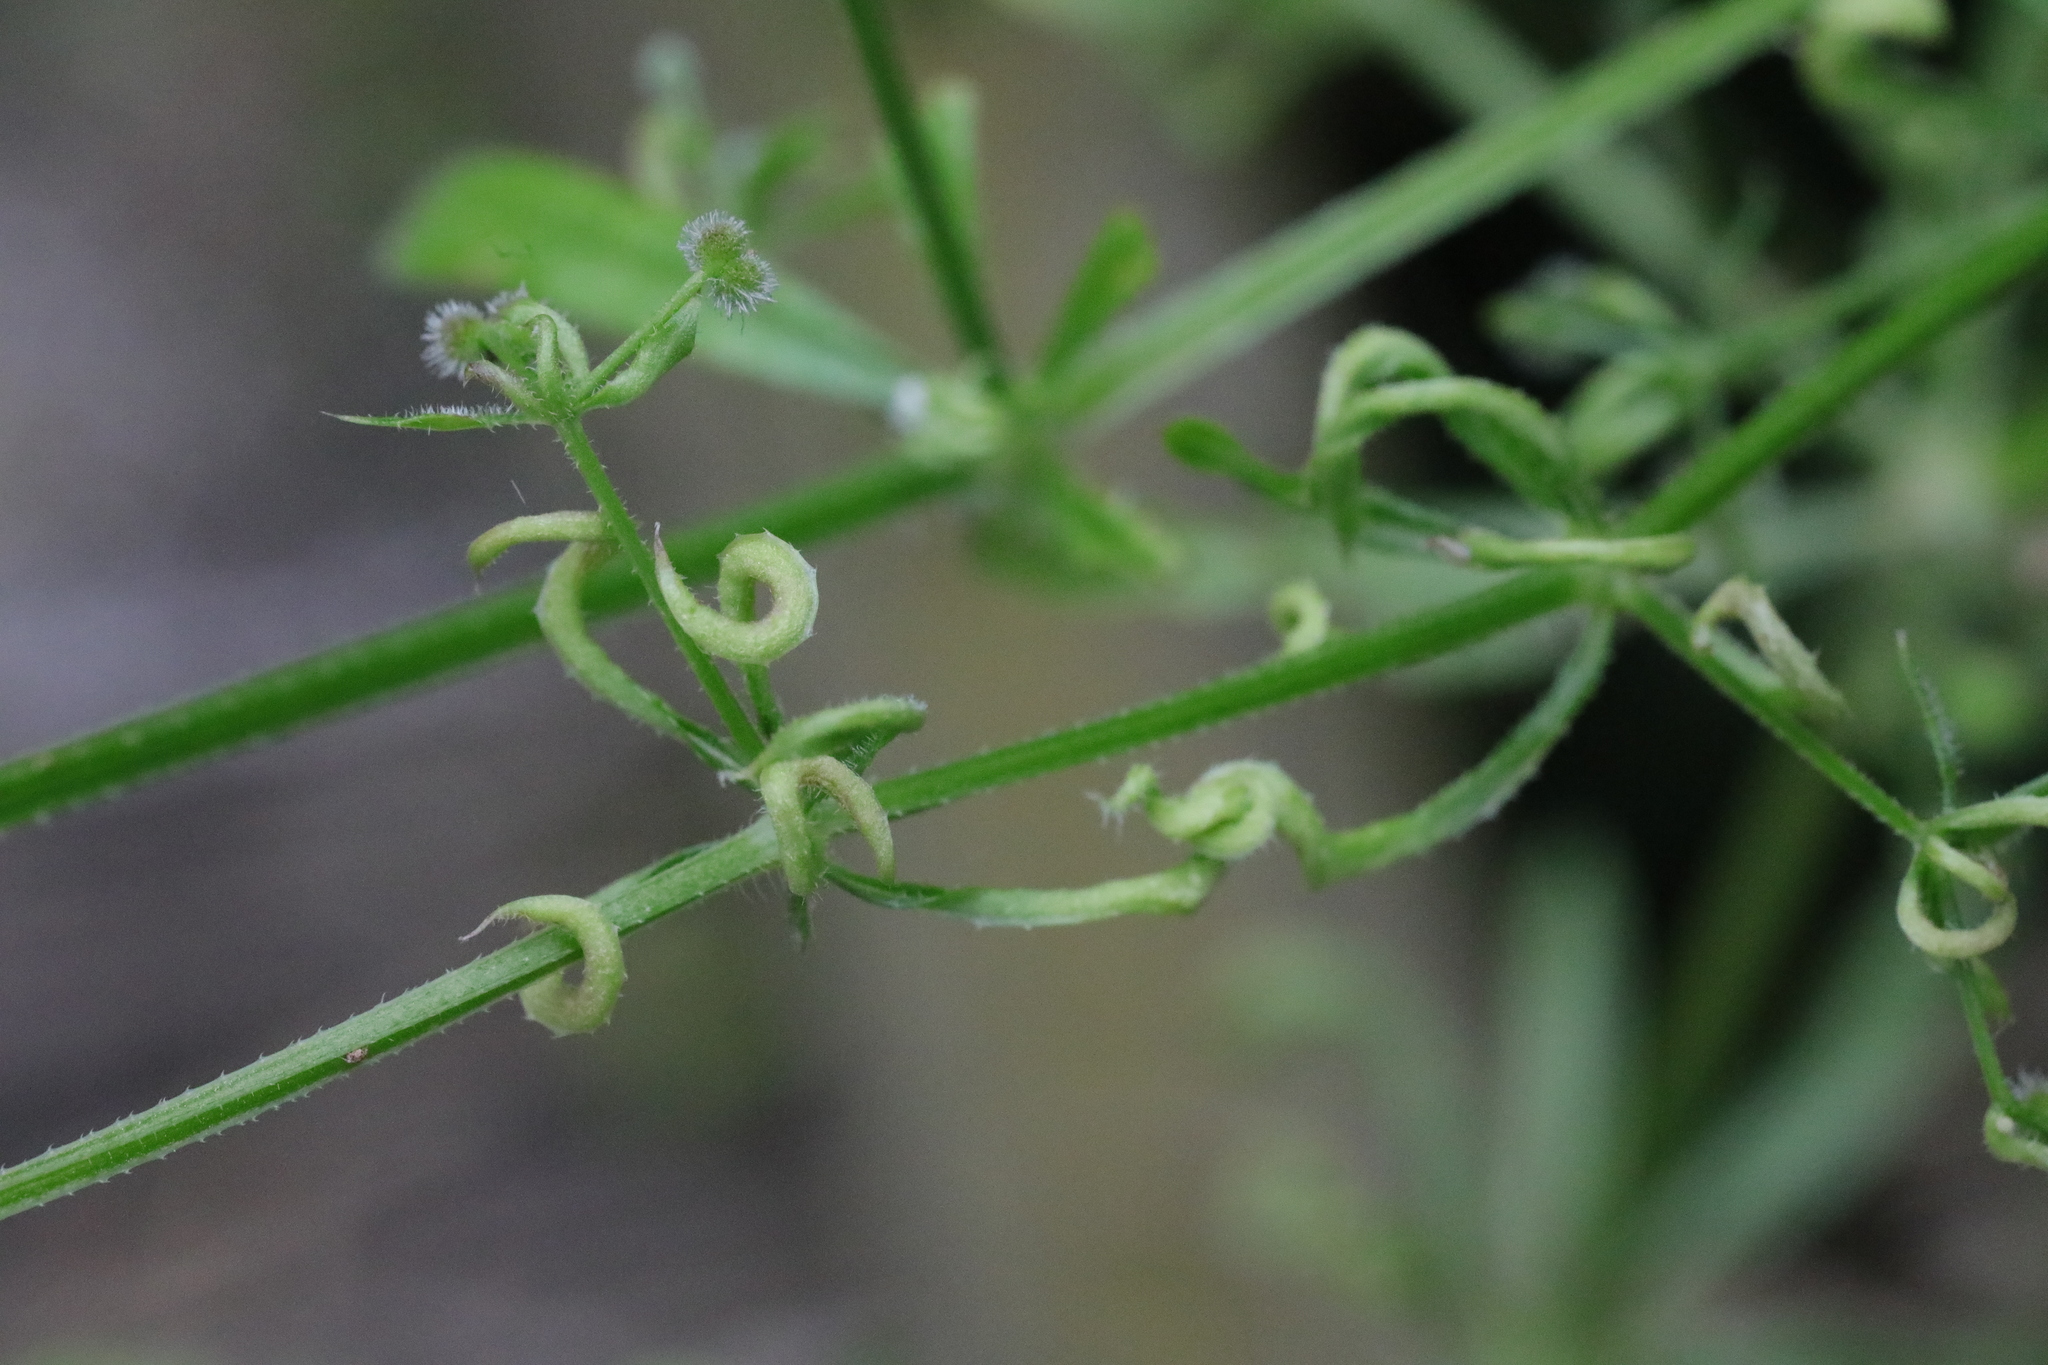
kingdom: Animalia
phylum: Arthropoda
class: Arachnida
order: Trombidiformes
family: Eriophyidae
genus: Cecidophyes
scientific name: Cecidophyes rouhollahi
